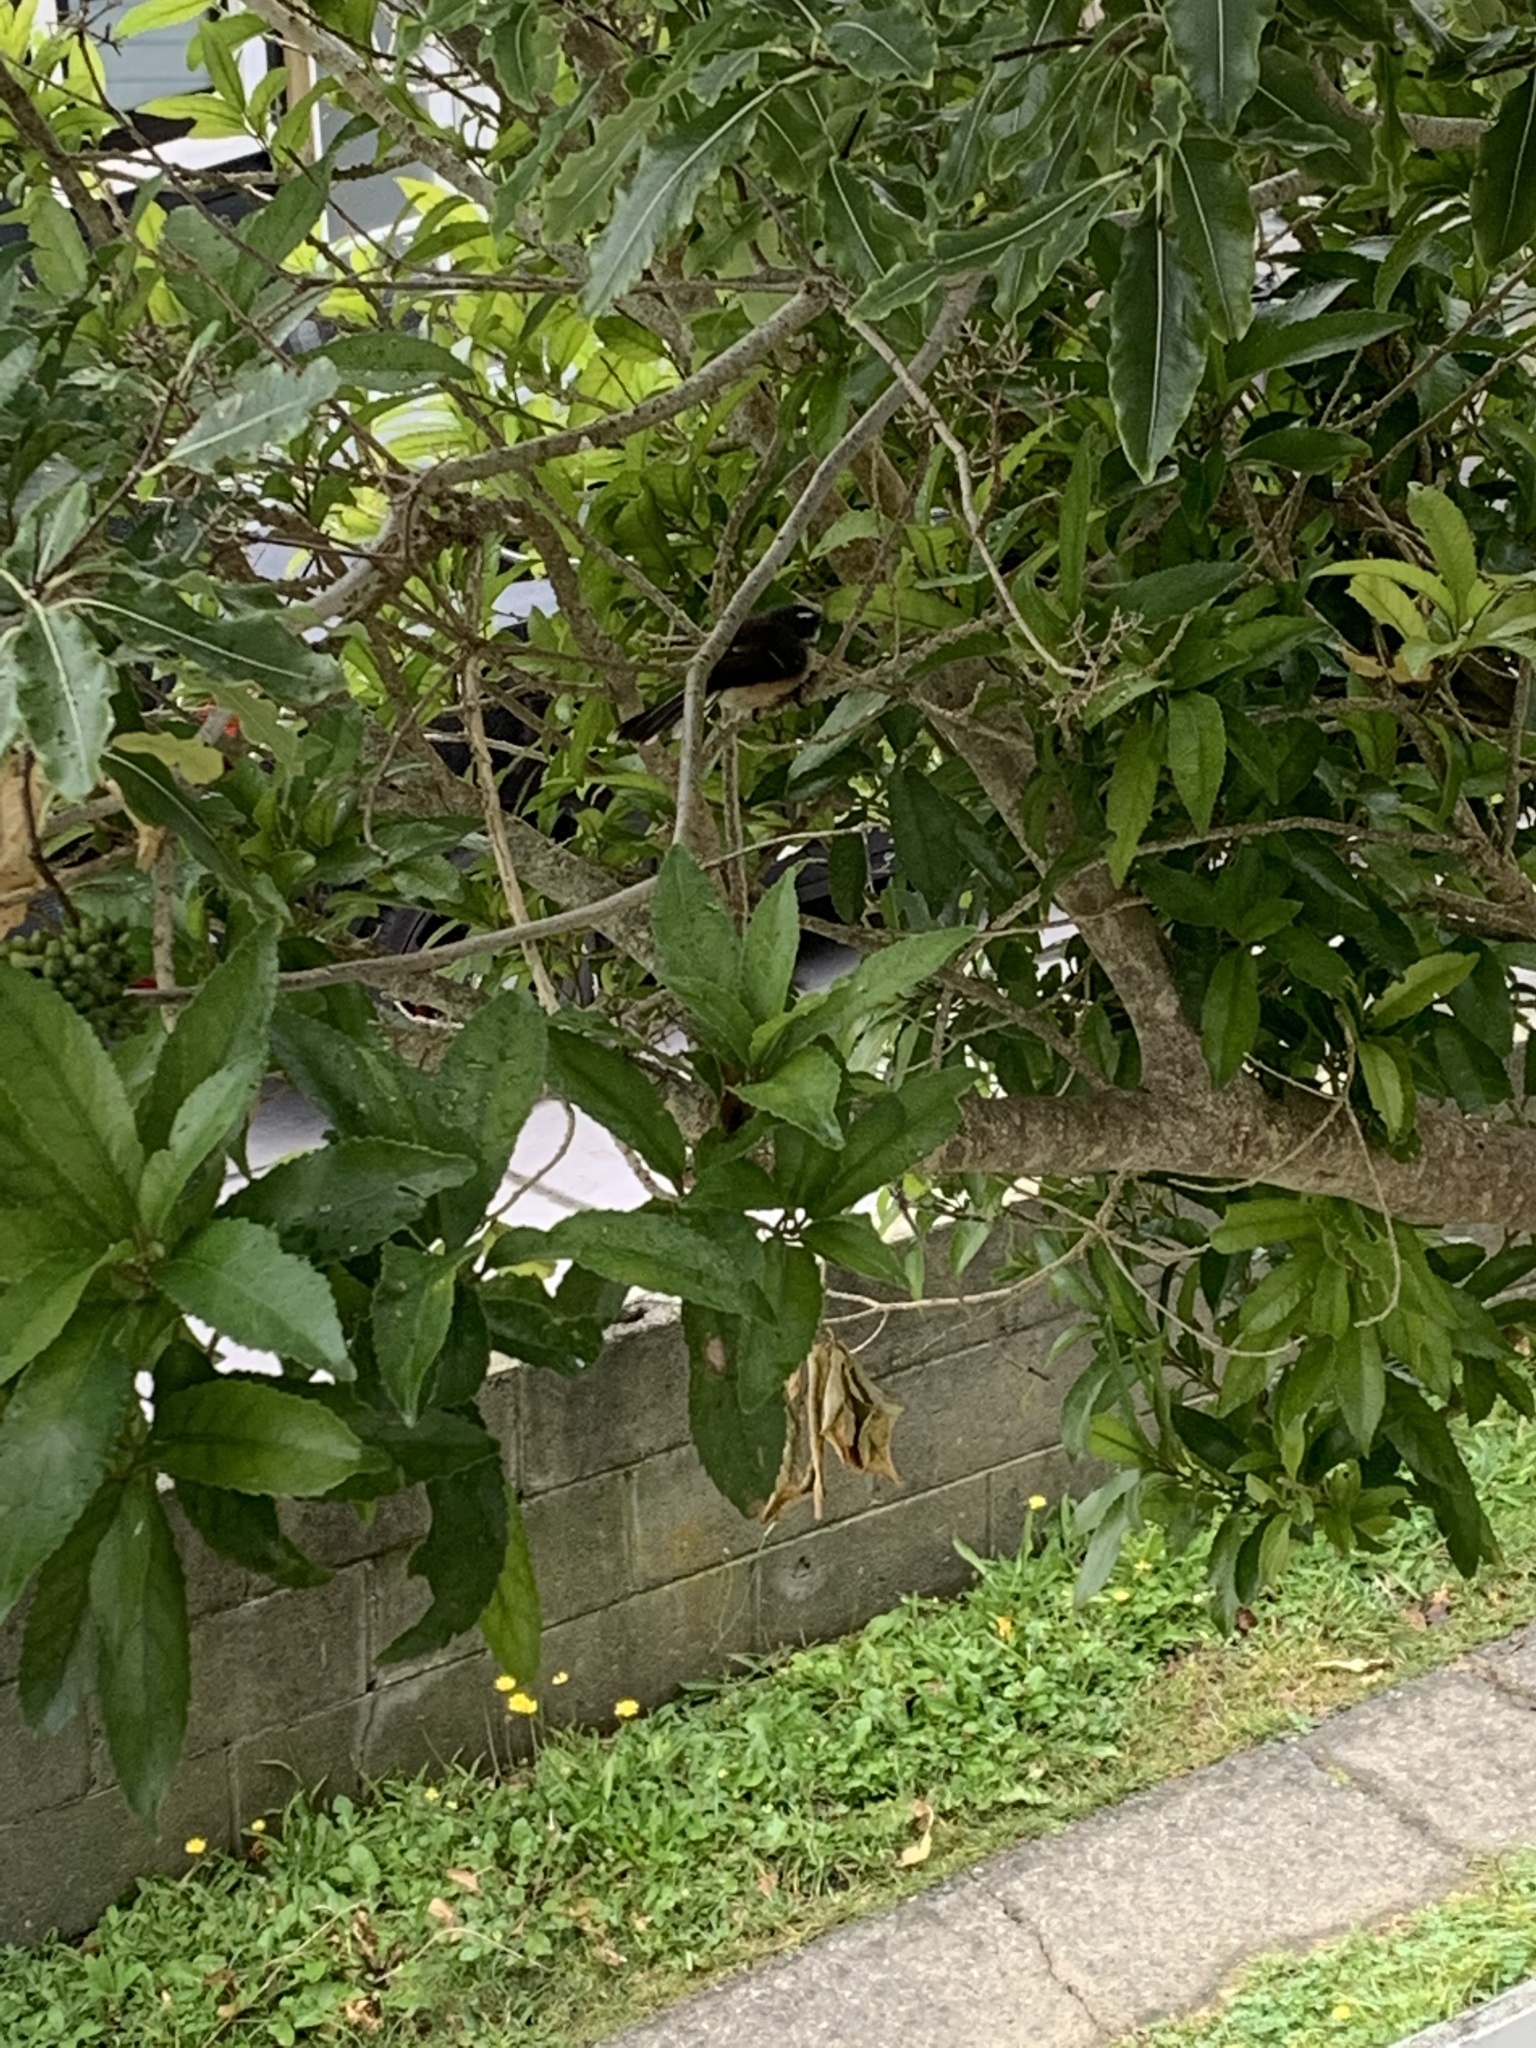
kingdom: Animalia
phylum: Chordata
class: Aves
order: Passeriformes
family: Rhipiduridae
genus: Rhipidura
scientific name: Rhipidura fuliginosa
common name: New zealand fantail
